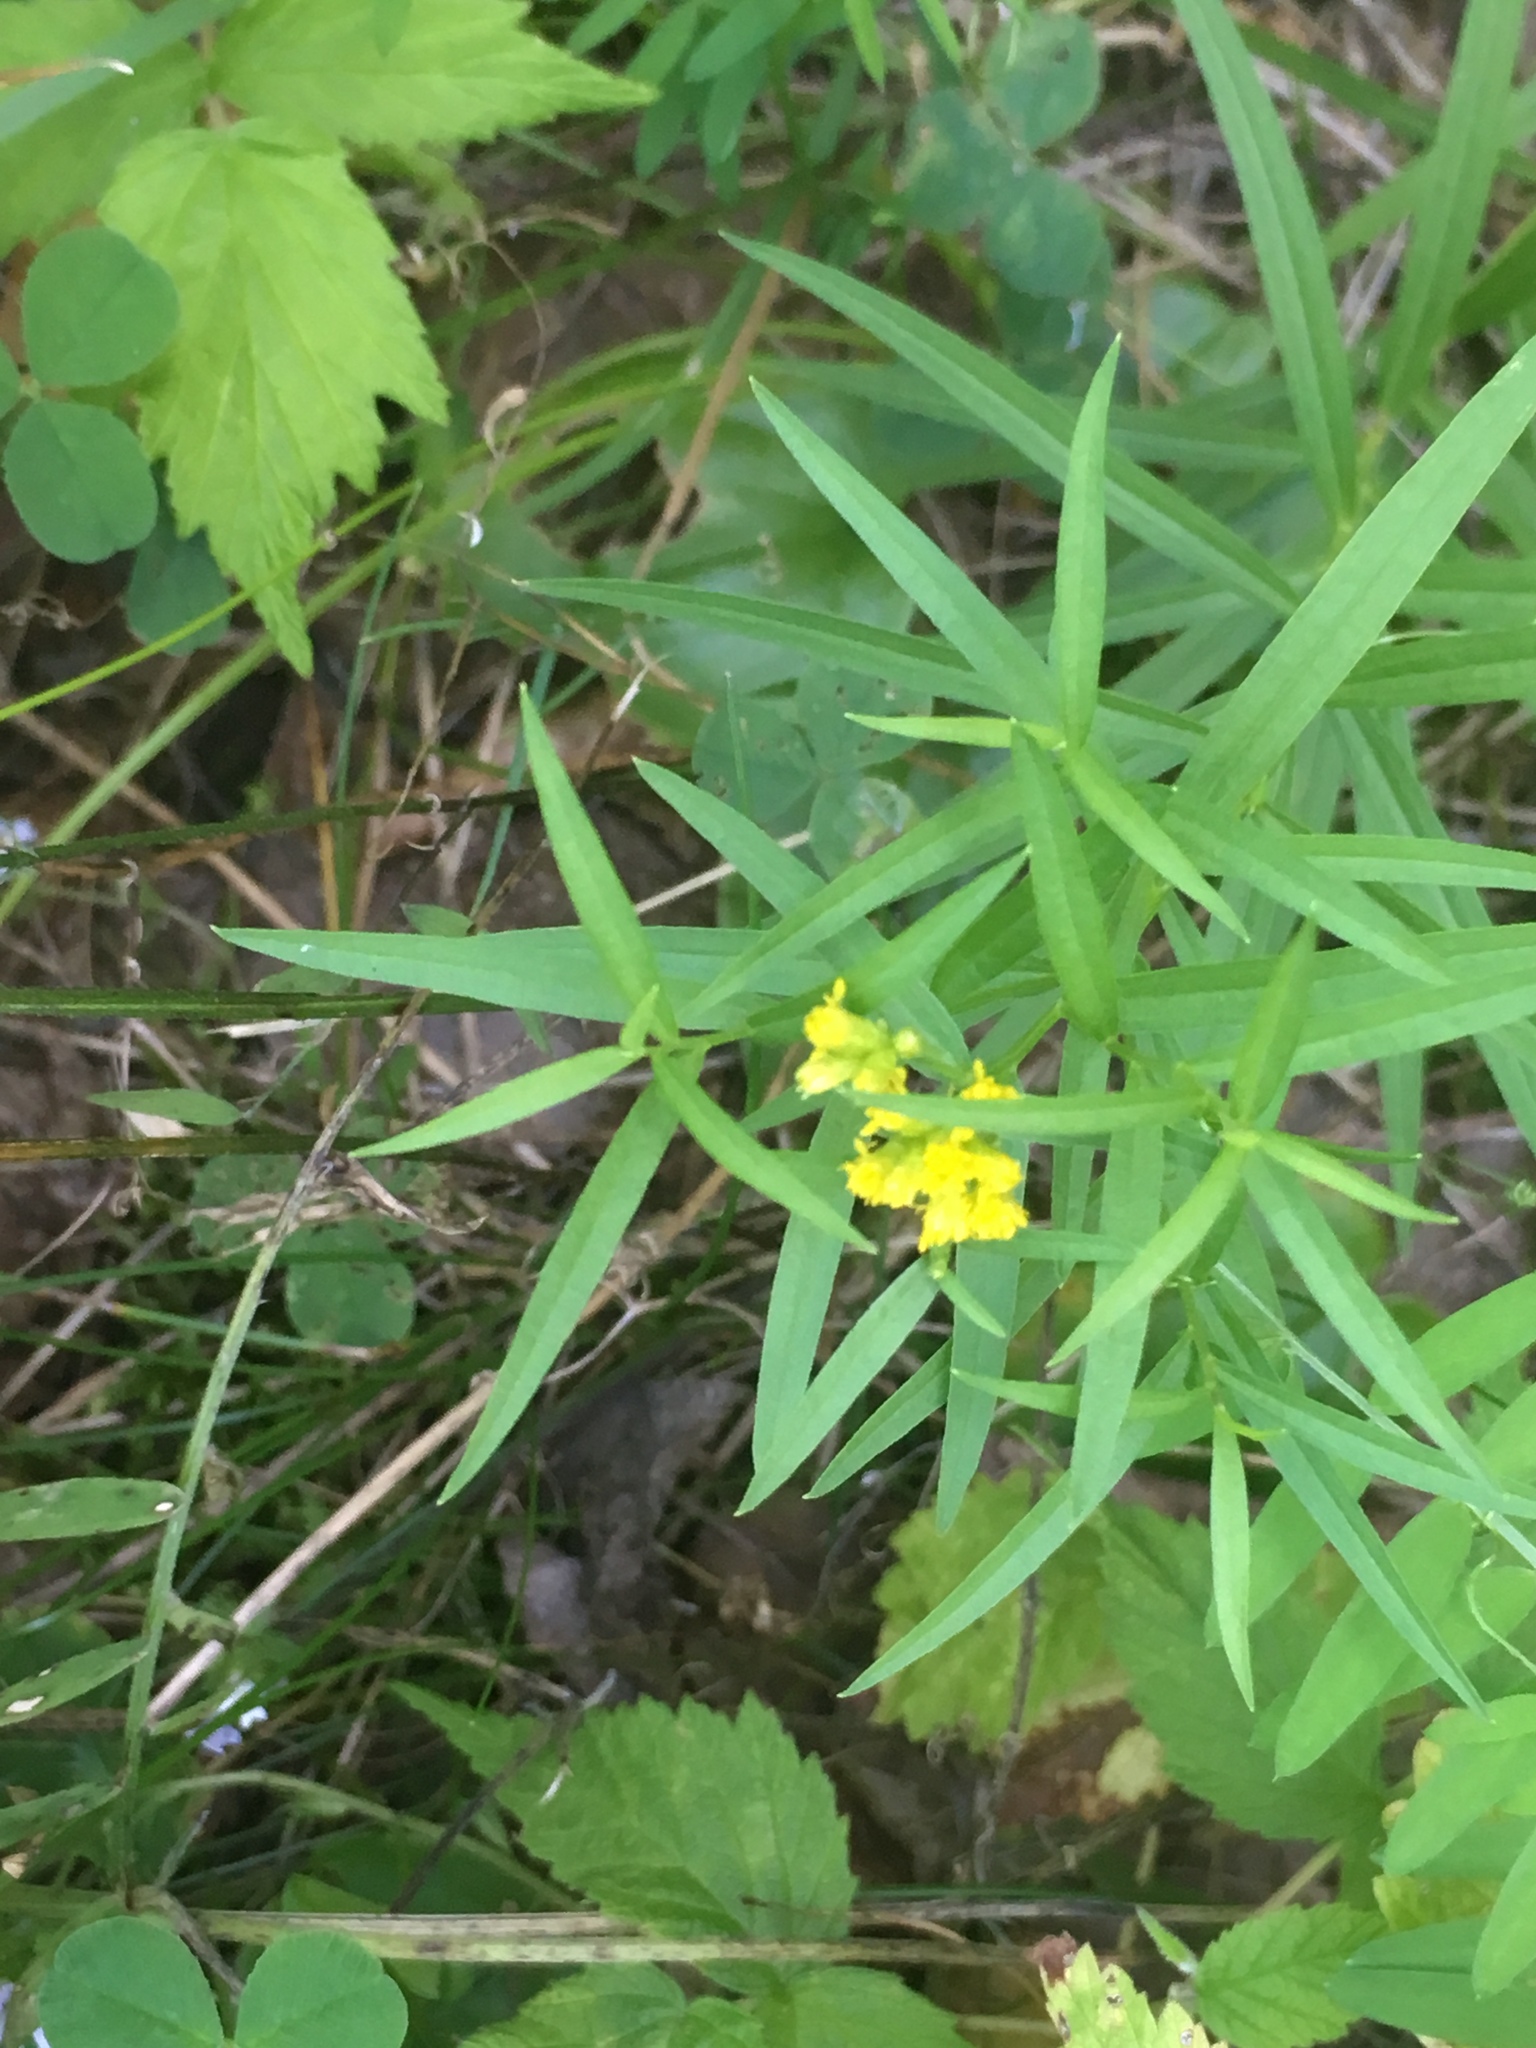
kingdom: Plantae
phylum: Tracheophyta
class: Magnoliopsida
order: Asterales
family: Asteraceae
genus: Euthamia
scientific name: Euthamia graminifolia
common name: Common goldentop
